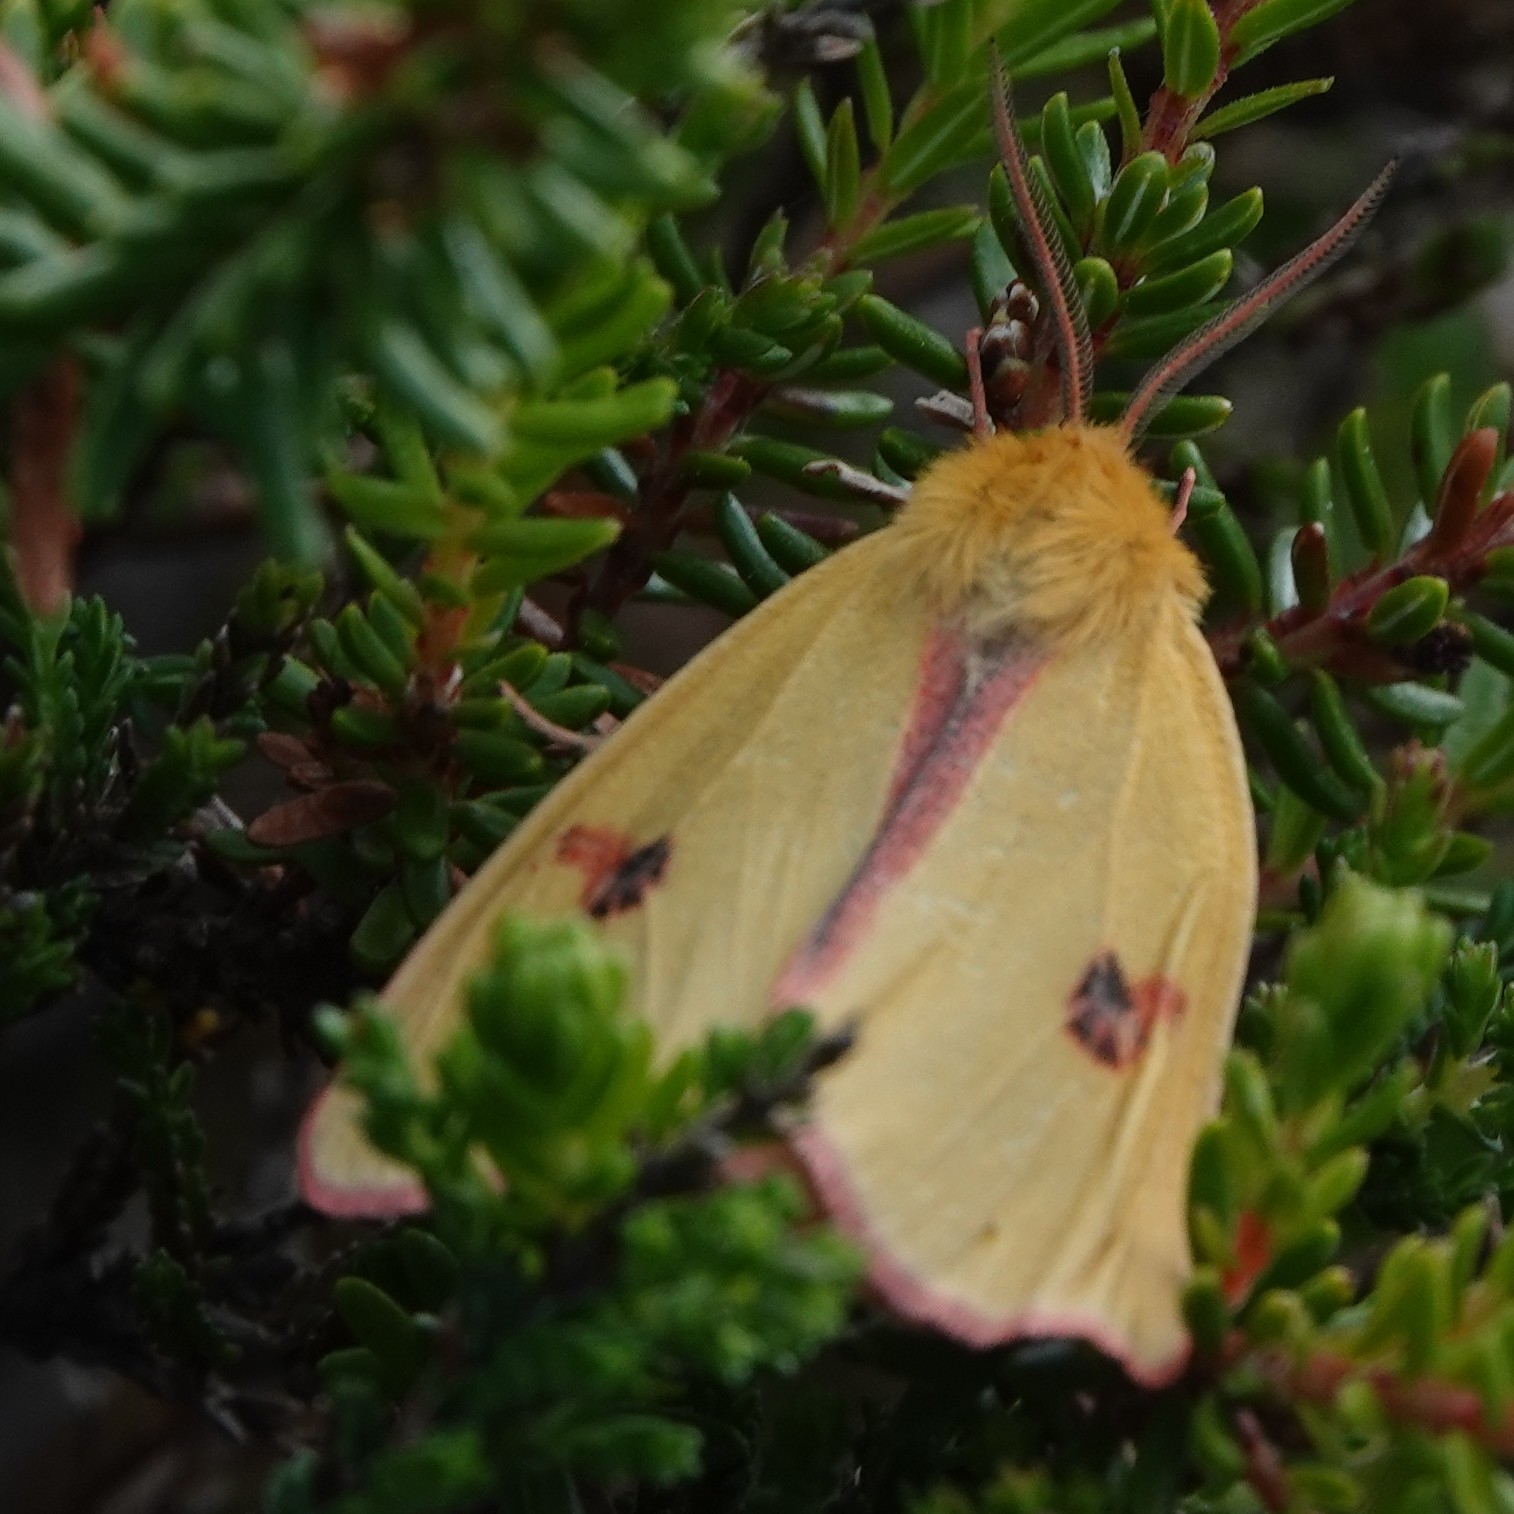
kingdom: Animalia
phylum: Arthropoda
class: Insecta
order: Lepidoptera
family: Erebidae
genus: Diacrisia
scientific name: Diacrisia sannio
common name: Clouded buff
